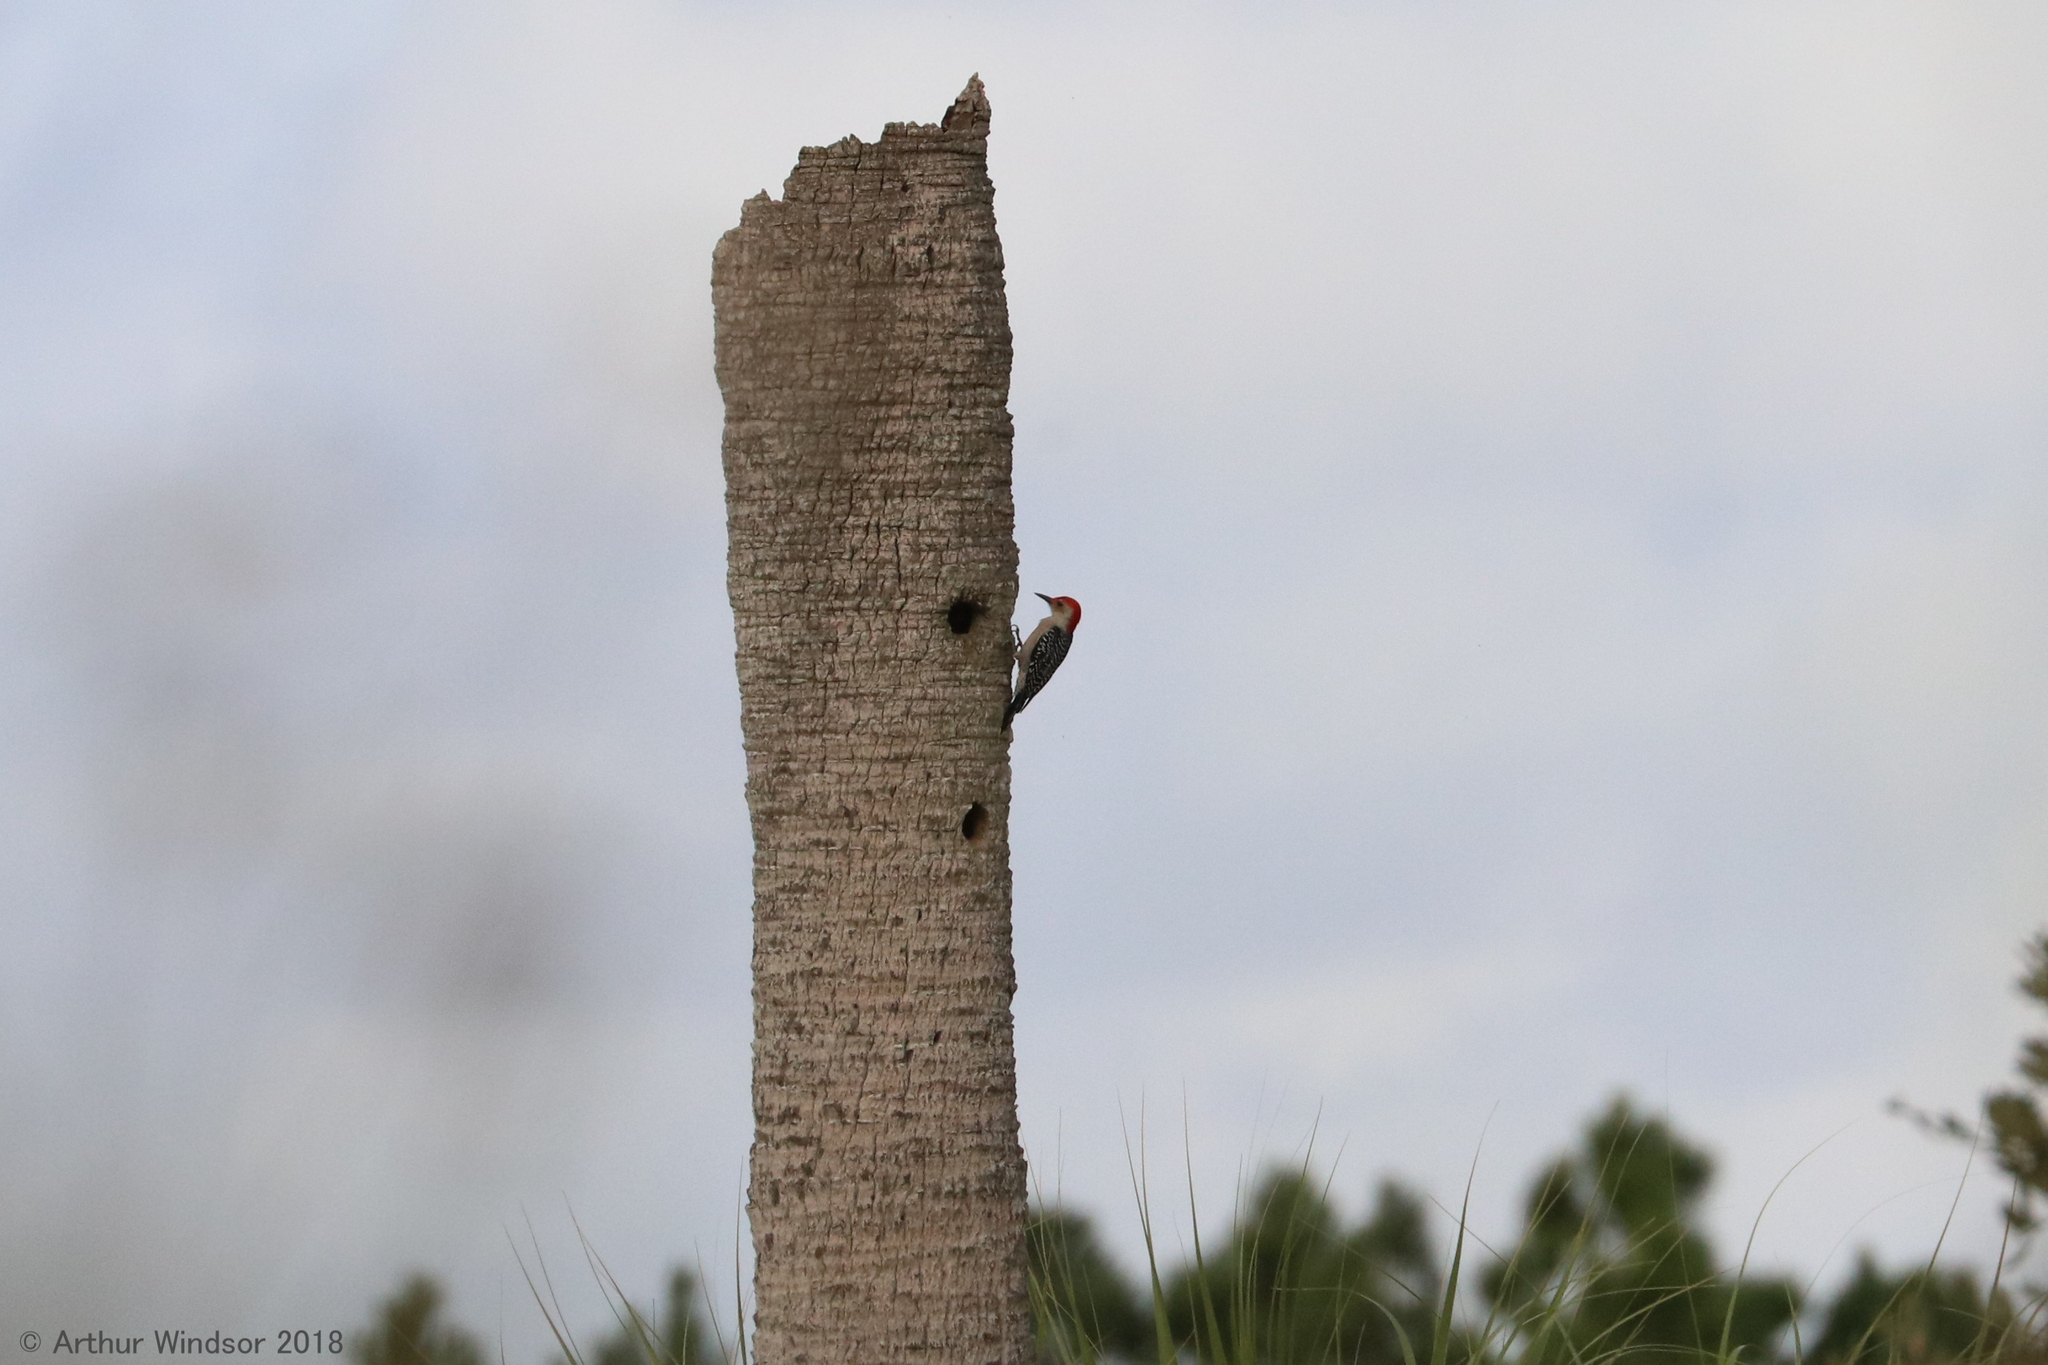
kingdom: Animalia
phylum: Chordata
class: Aves
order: Piciformes
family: Picidae
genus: Melanerpes
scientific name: Melanerpes carolinus
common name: Red-bellied woodpecker
